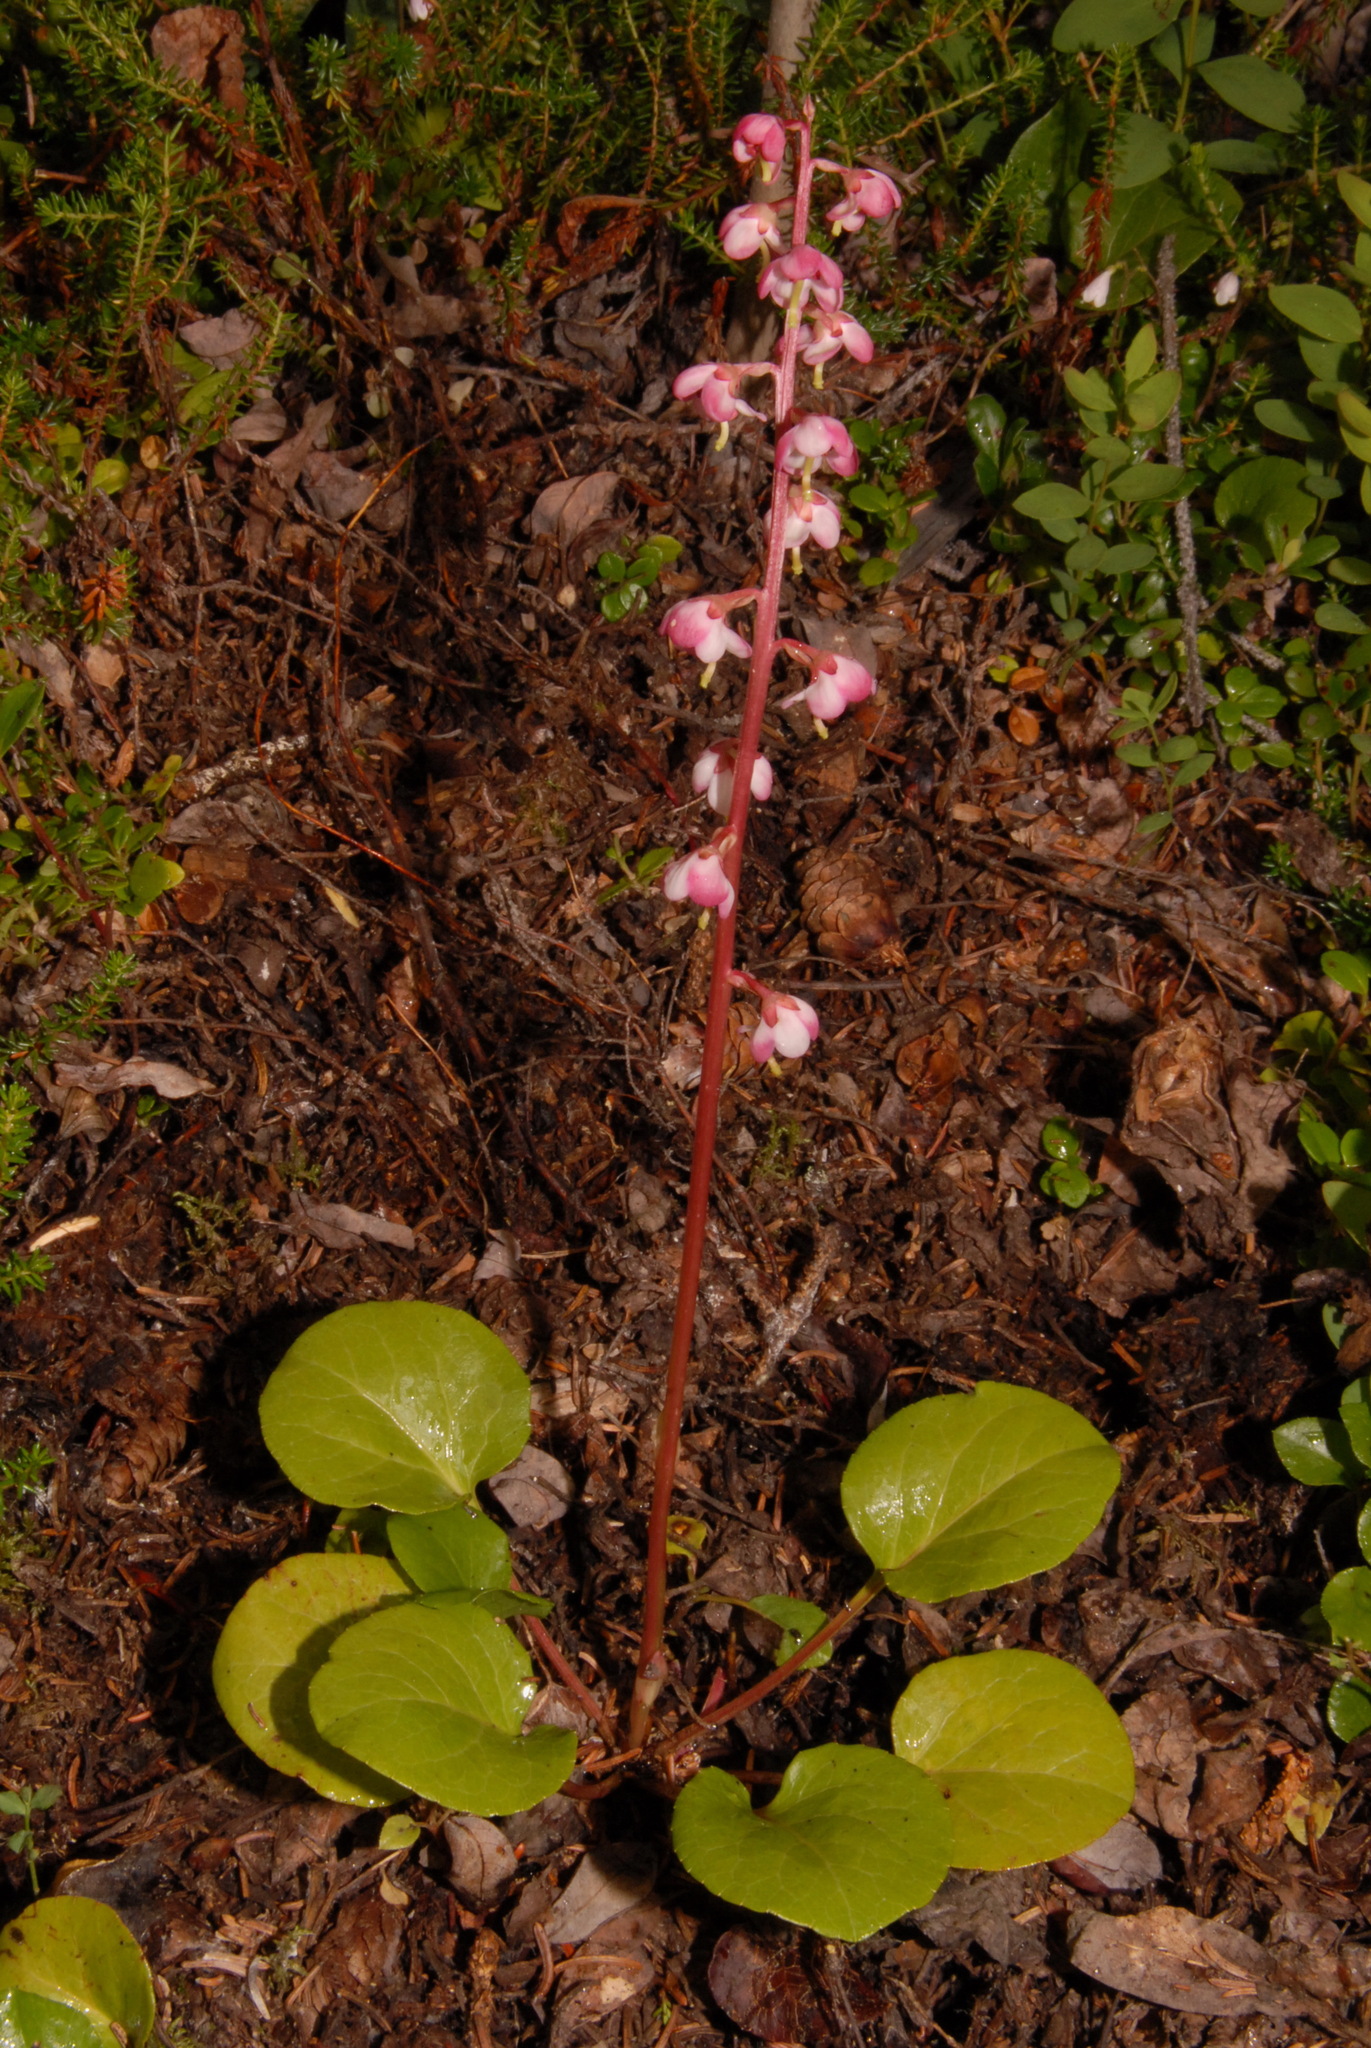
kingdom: Plantae
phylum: Tracheophyta
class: Magnoliopsida
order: Ericales
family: Ericaceae
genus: Pyrola
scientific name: Pyrola asarifolia
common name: Bog wintergreen
